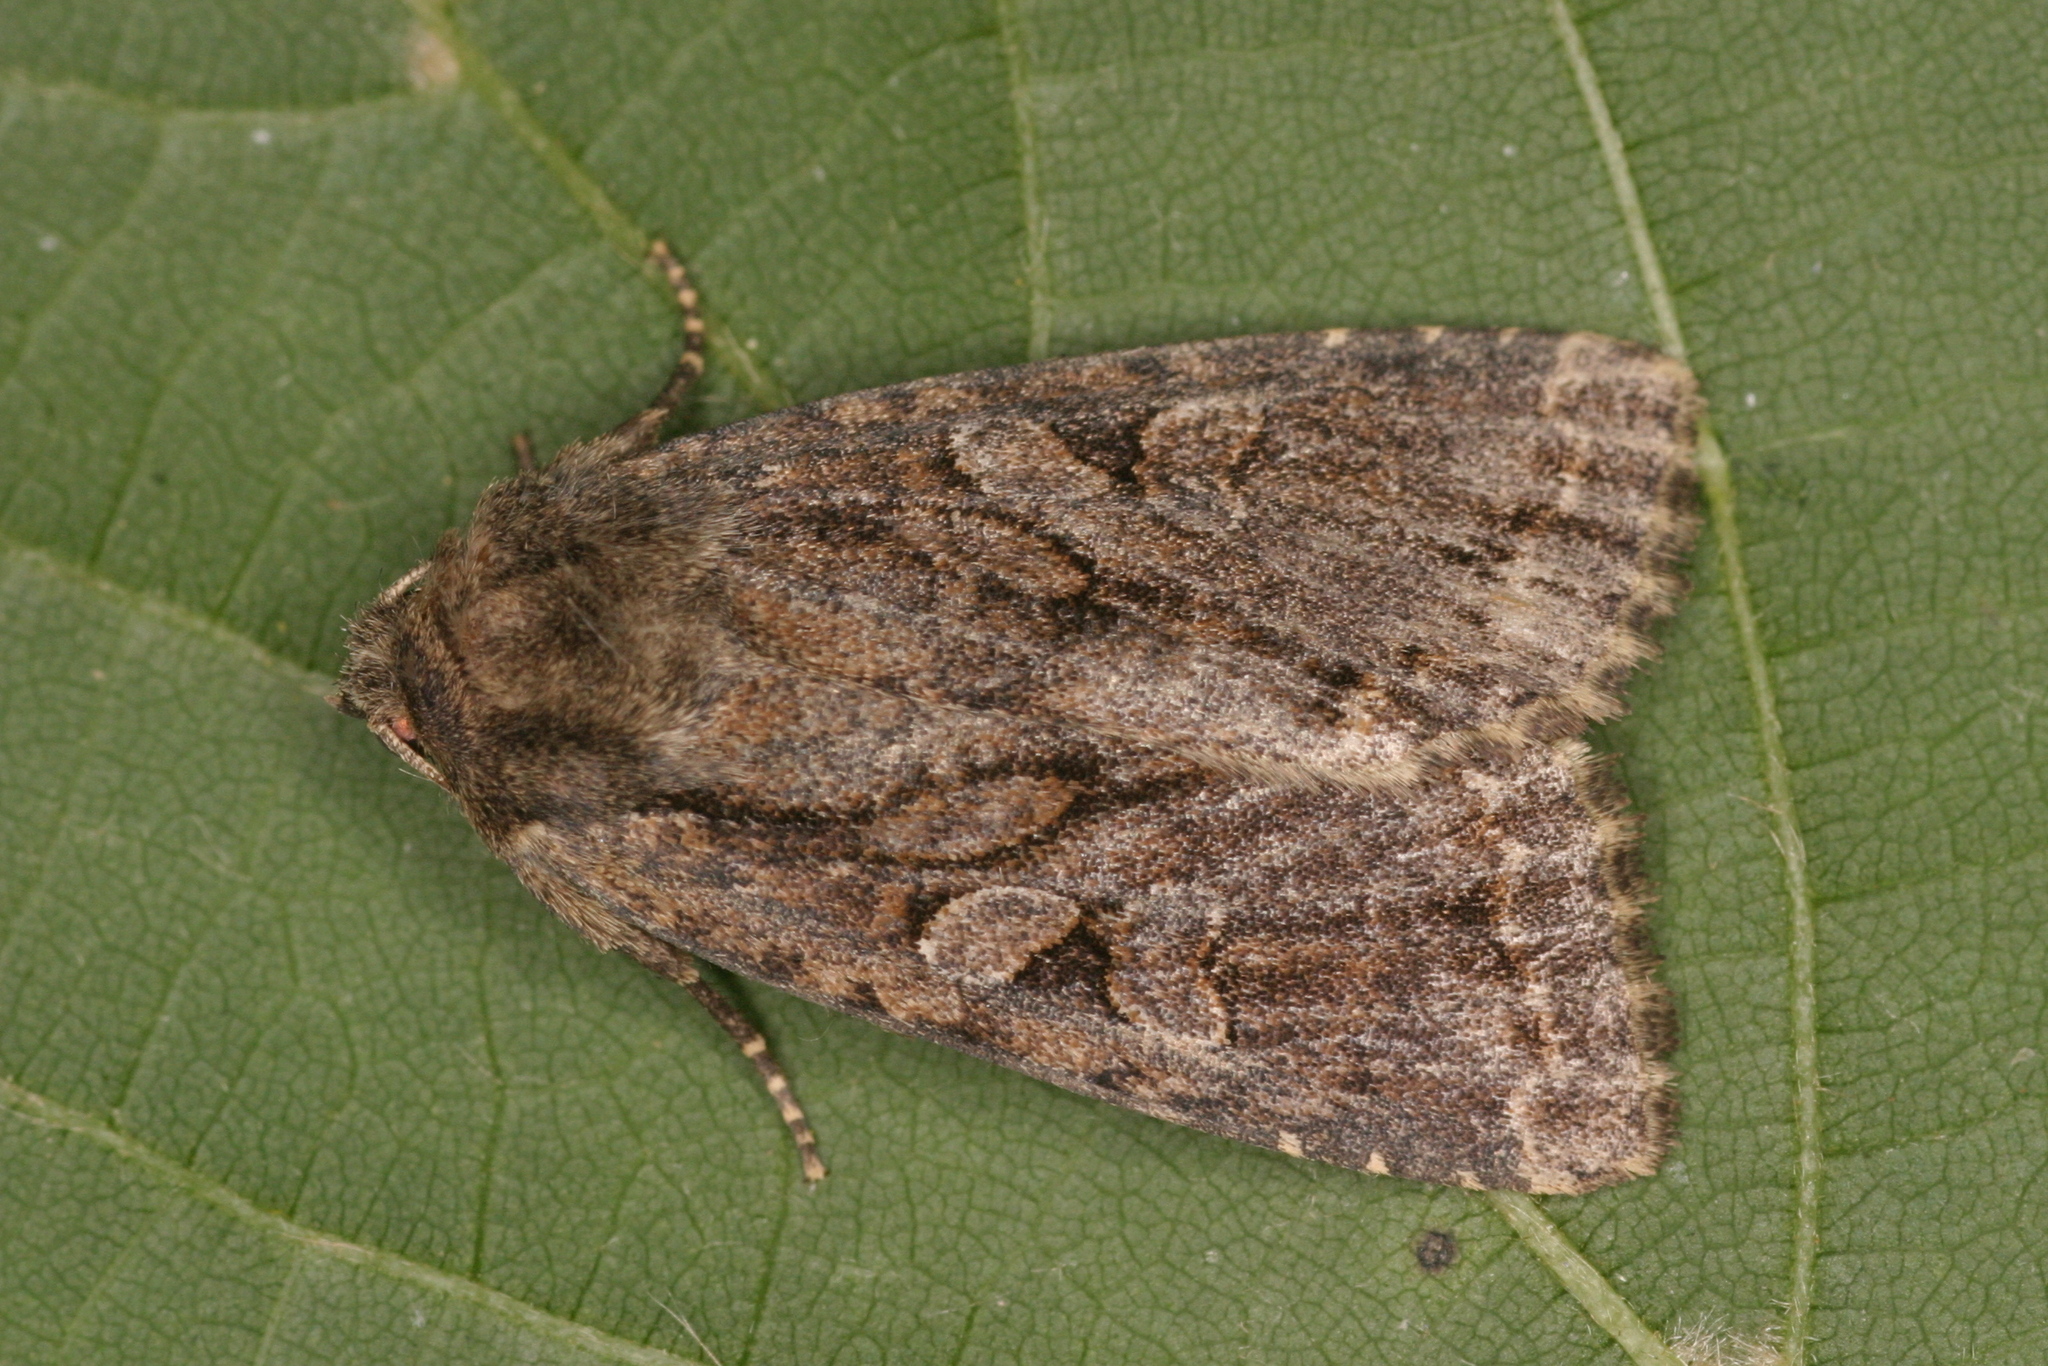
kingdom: Animalia
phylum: Arthropoda
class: Insecta
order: Lepidoptera
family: Noctuidae
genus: Apterogenum
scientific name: Apterogenum ypsillon
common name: Dingy shears
